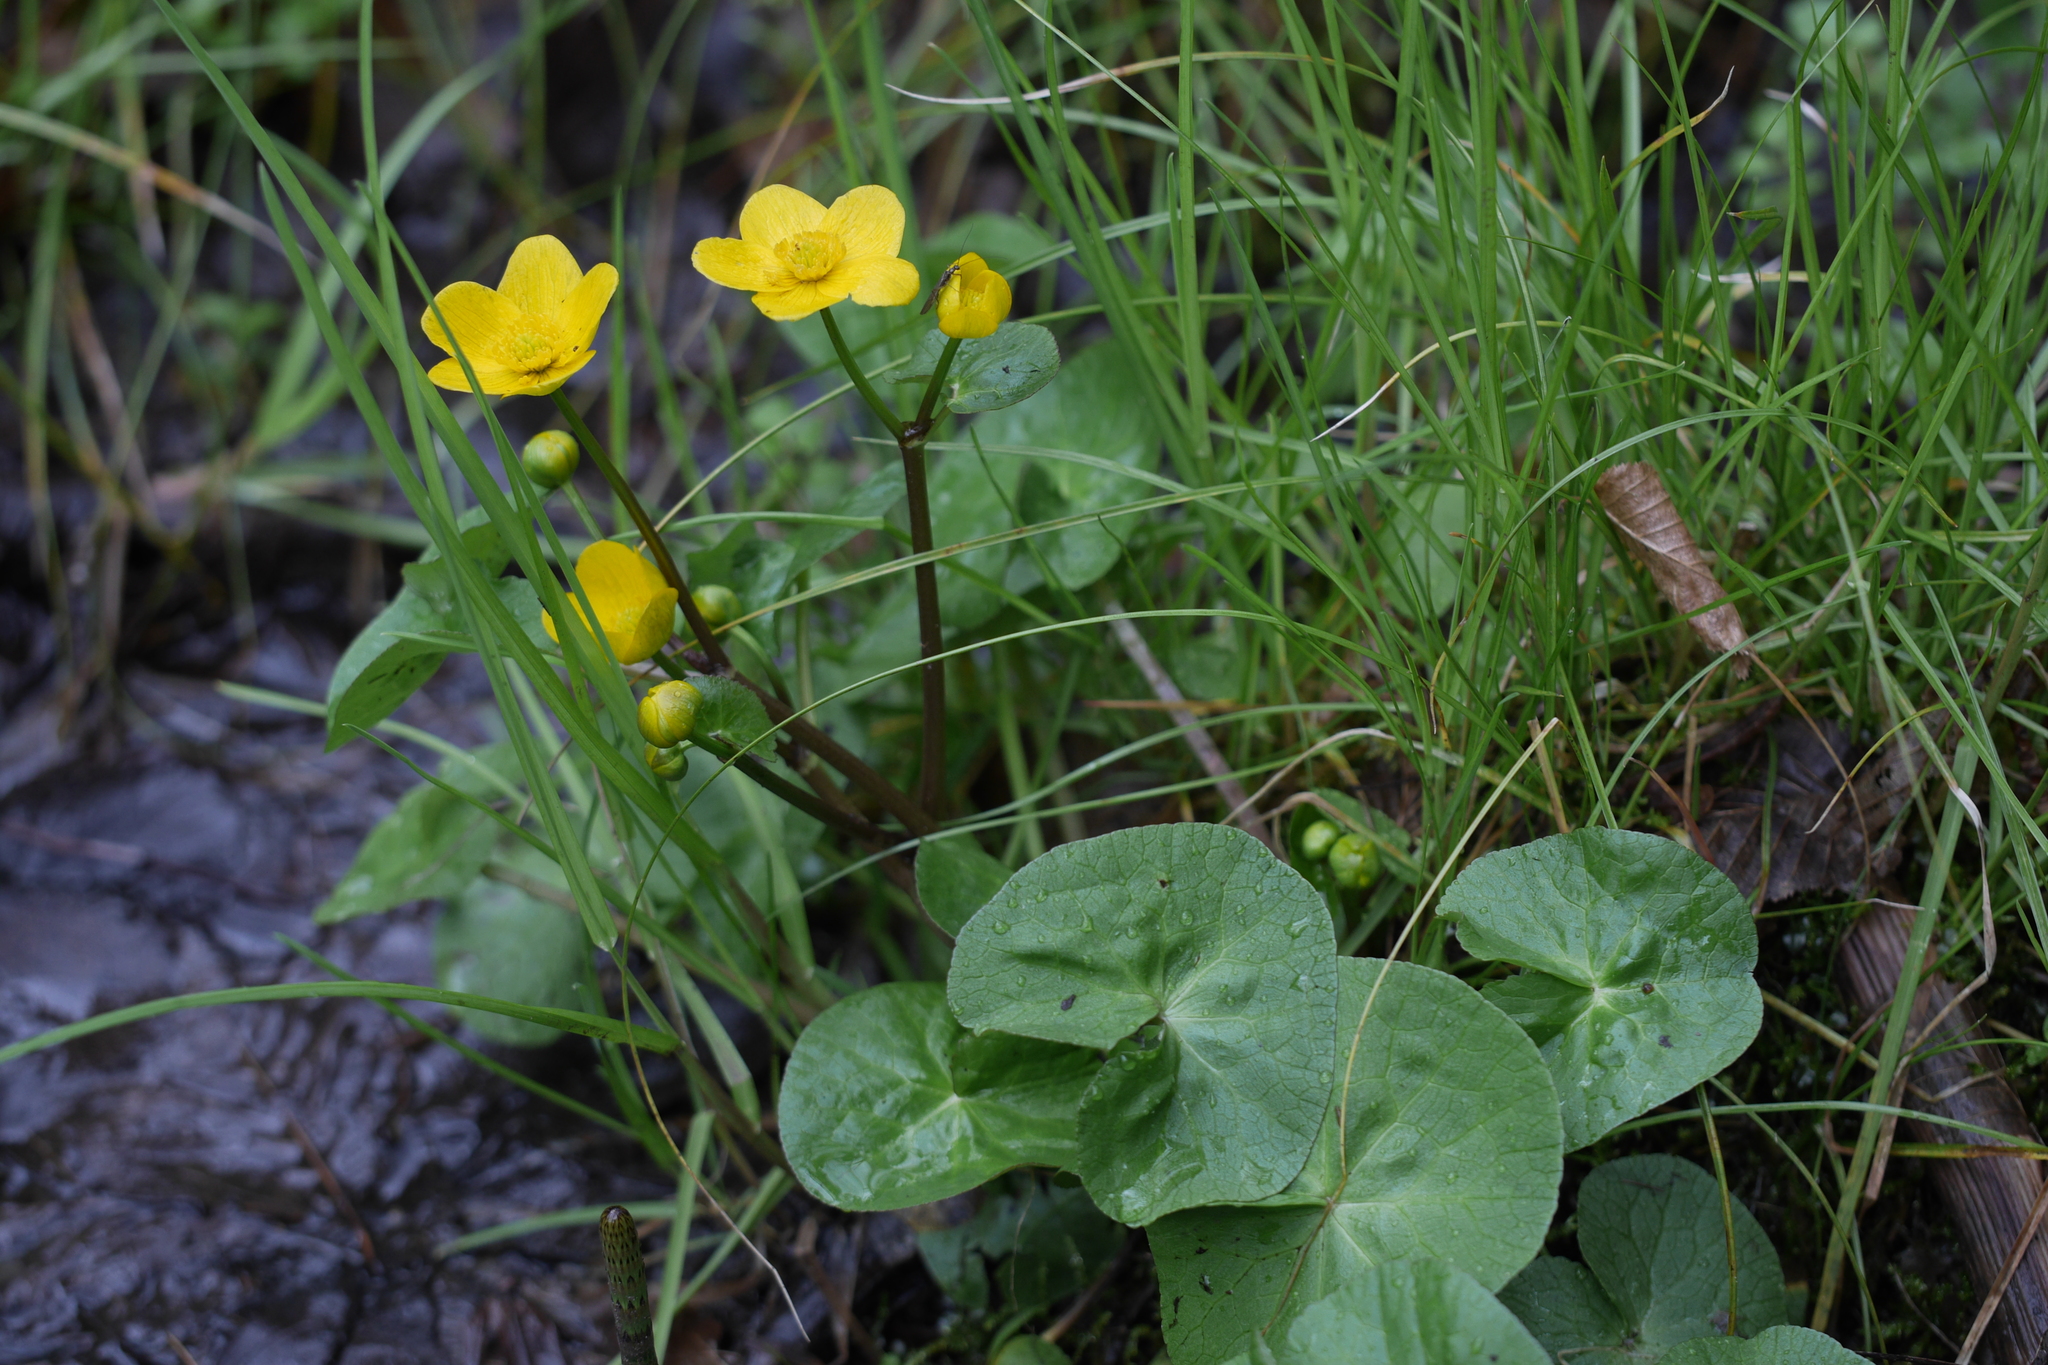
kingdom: Plantae
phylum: Tracheophyta
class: Magnoliopsida
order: Ranunculales
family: Ranunculaceae
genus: Caltha
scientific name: Caltha palustris
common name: Marsh marigold
